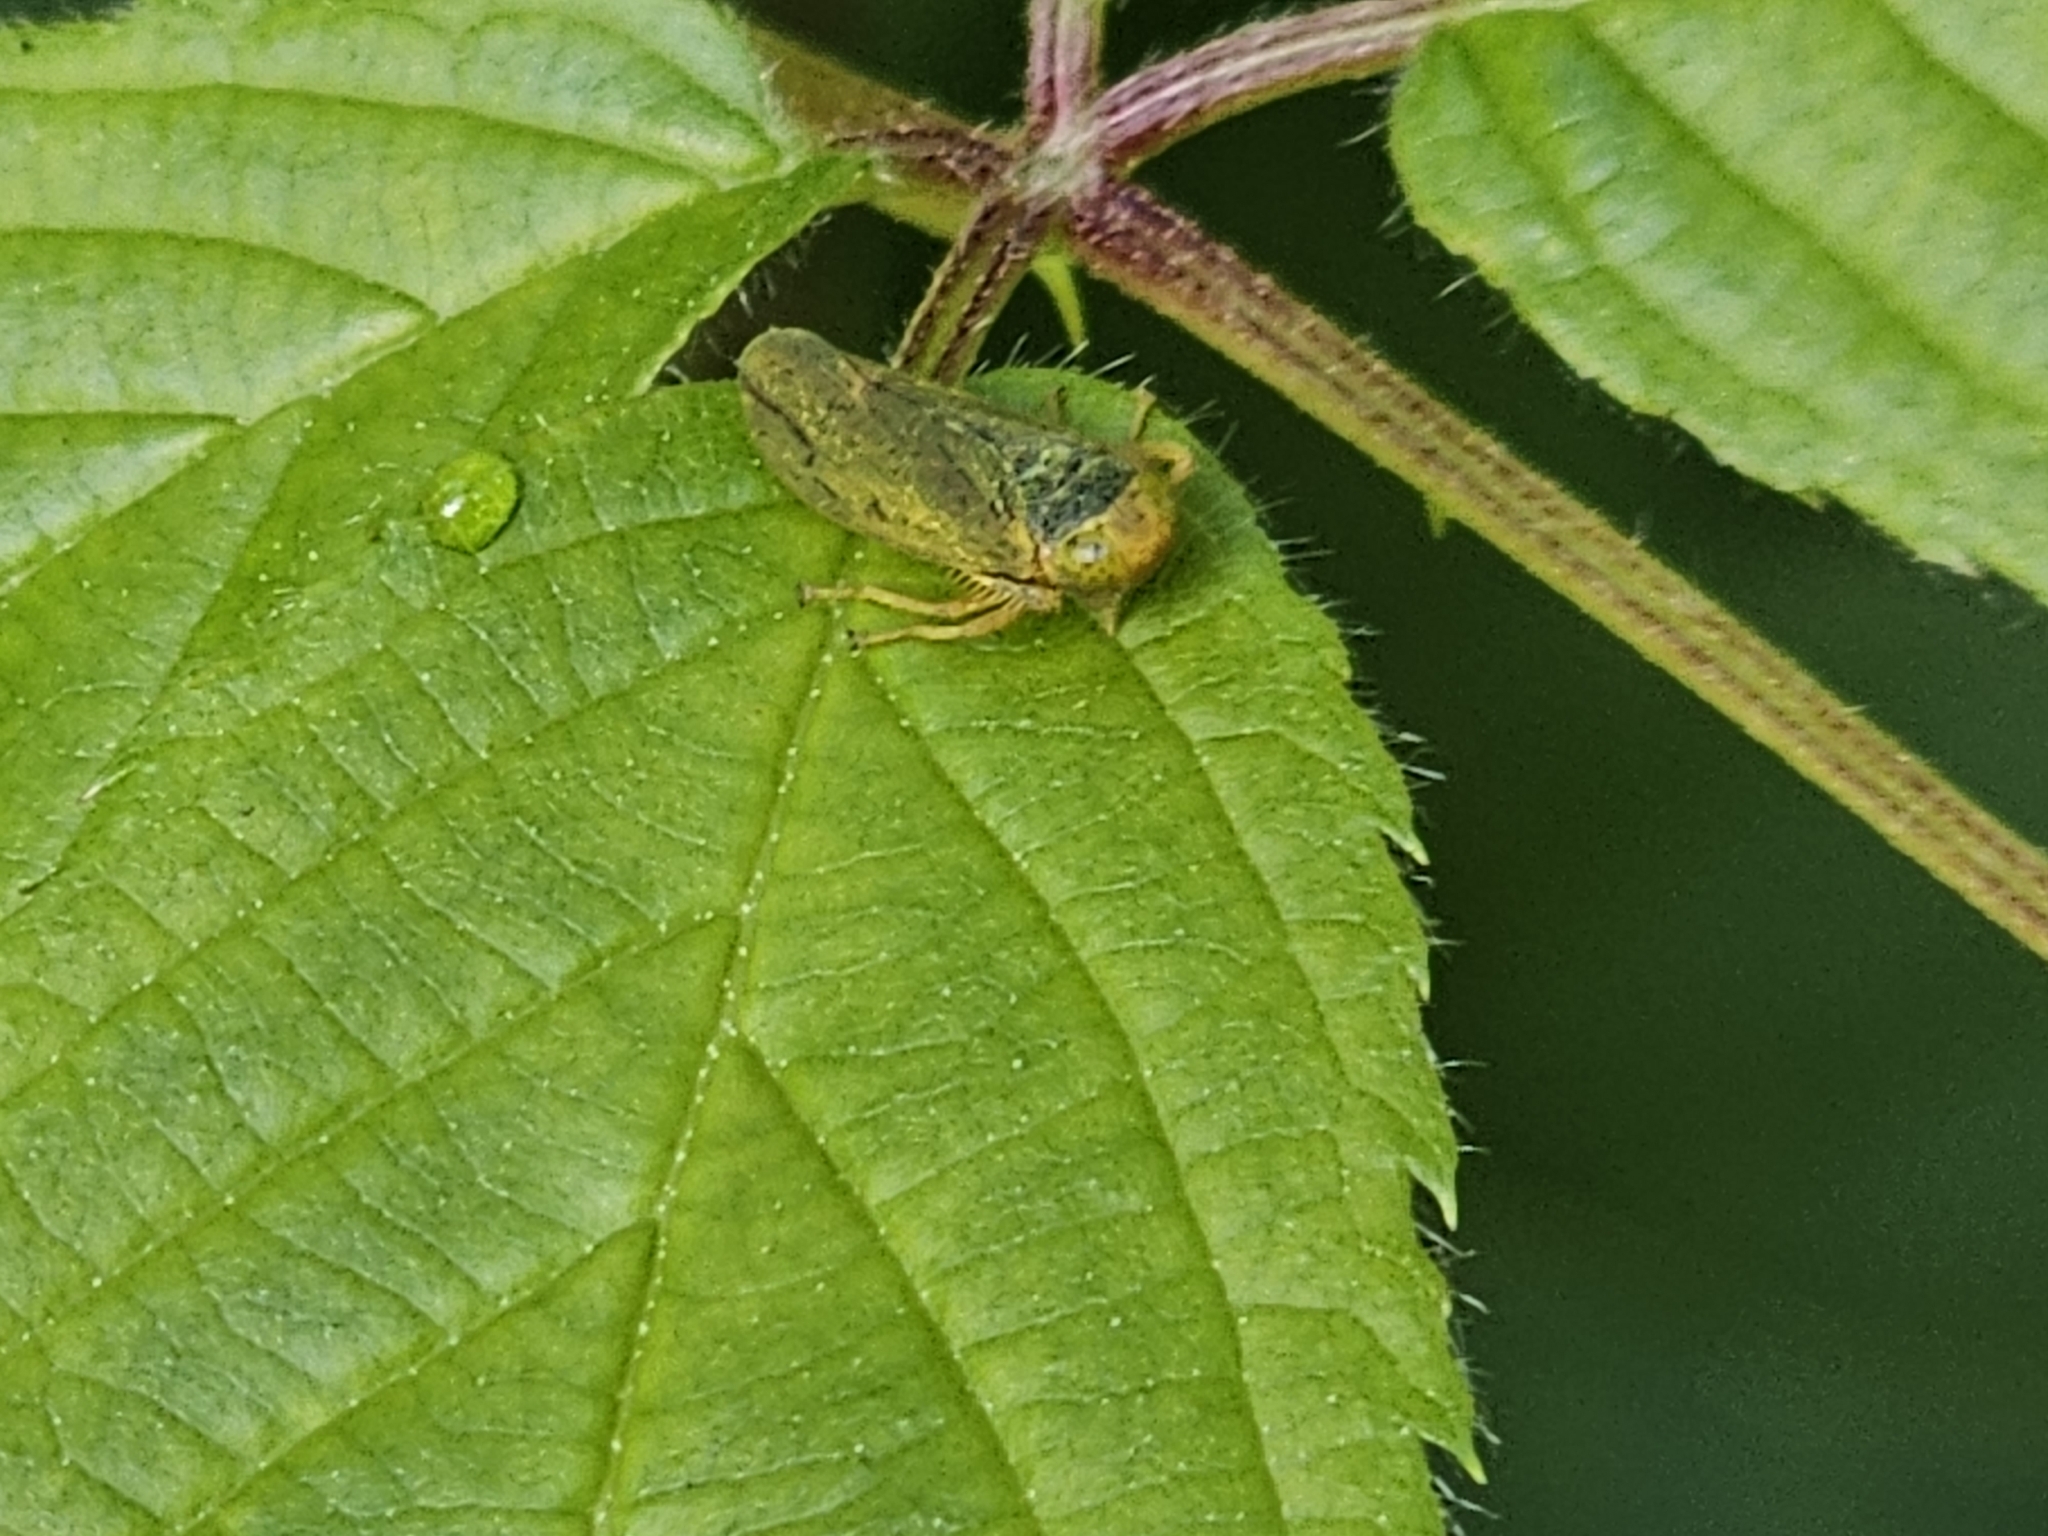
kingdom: Animalia
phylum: Arthropoda
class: Insecta
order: Hemiptera
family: Cicadellidae
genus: Jikradia
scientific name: Jikradia olitoria
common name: Coppery leafhopper
